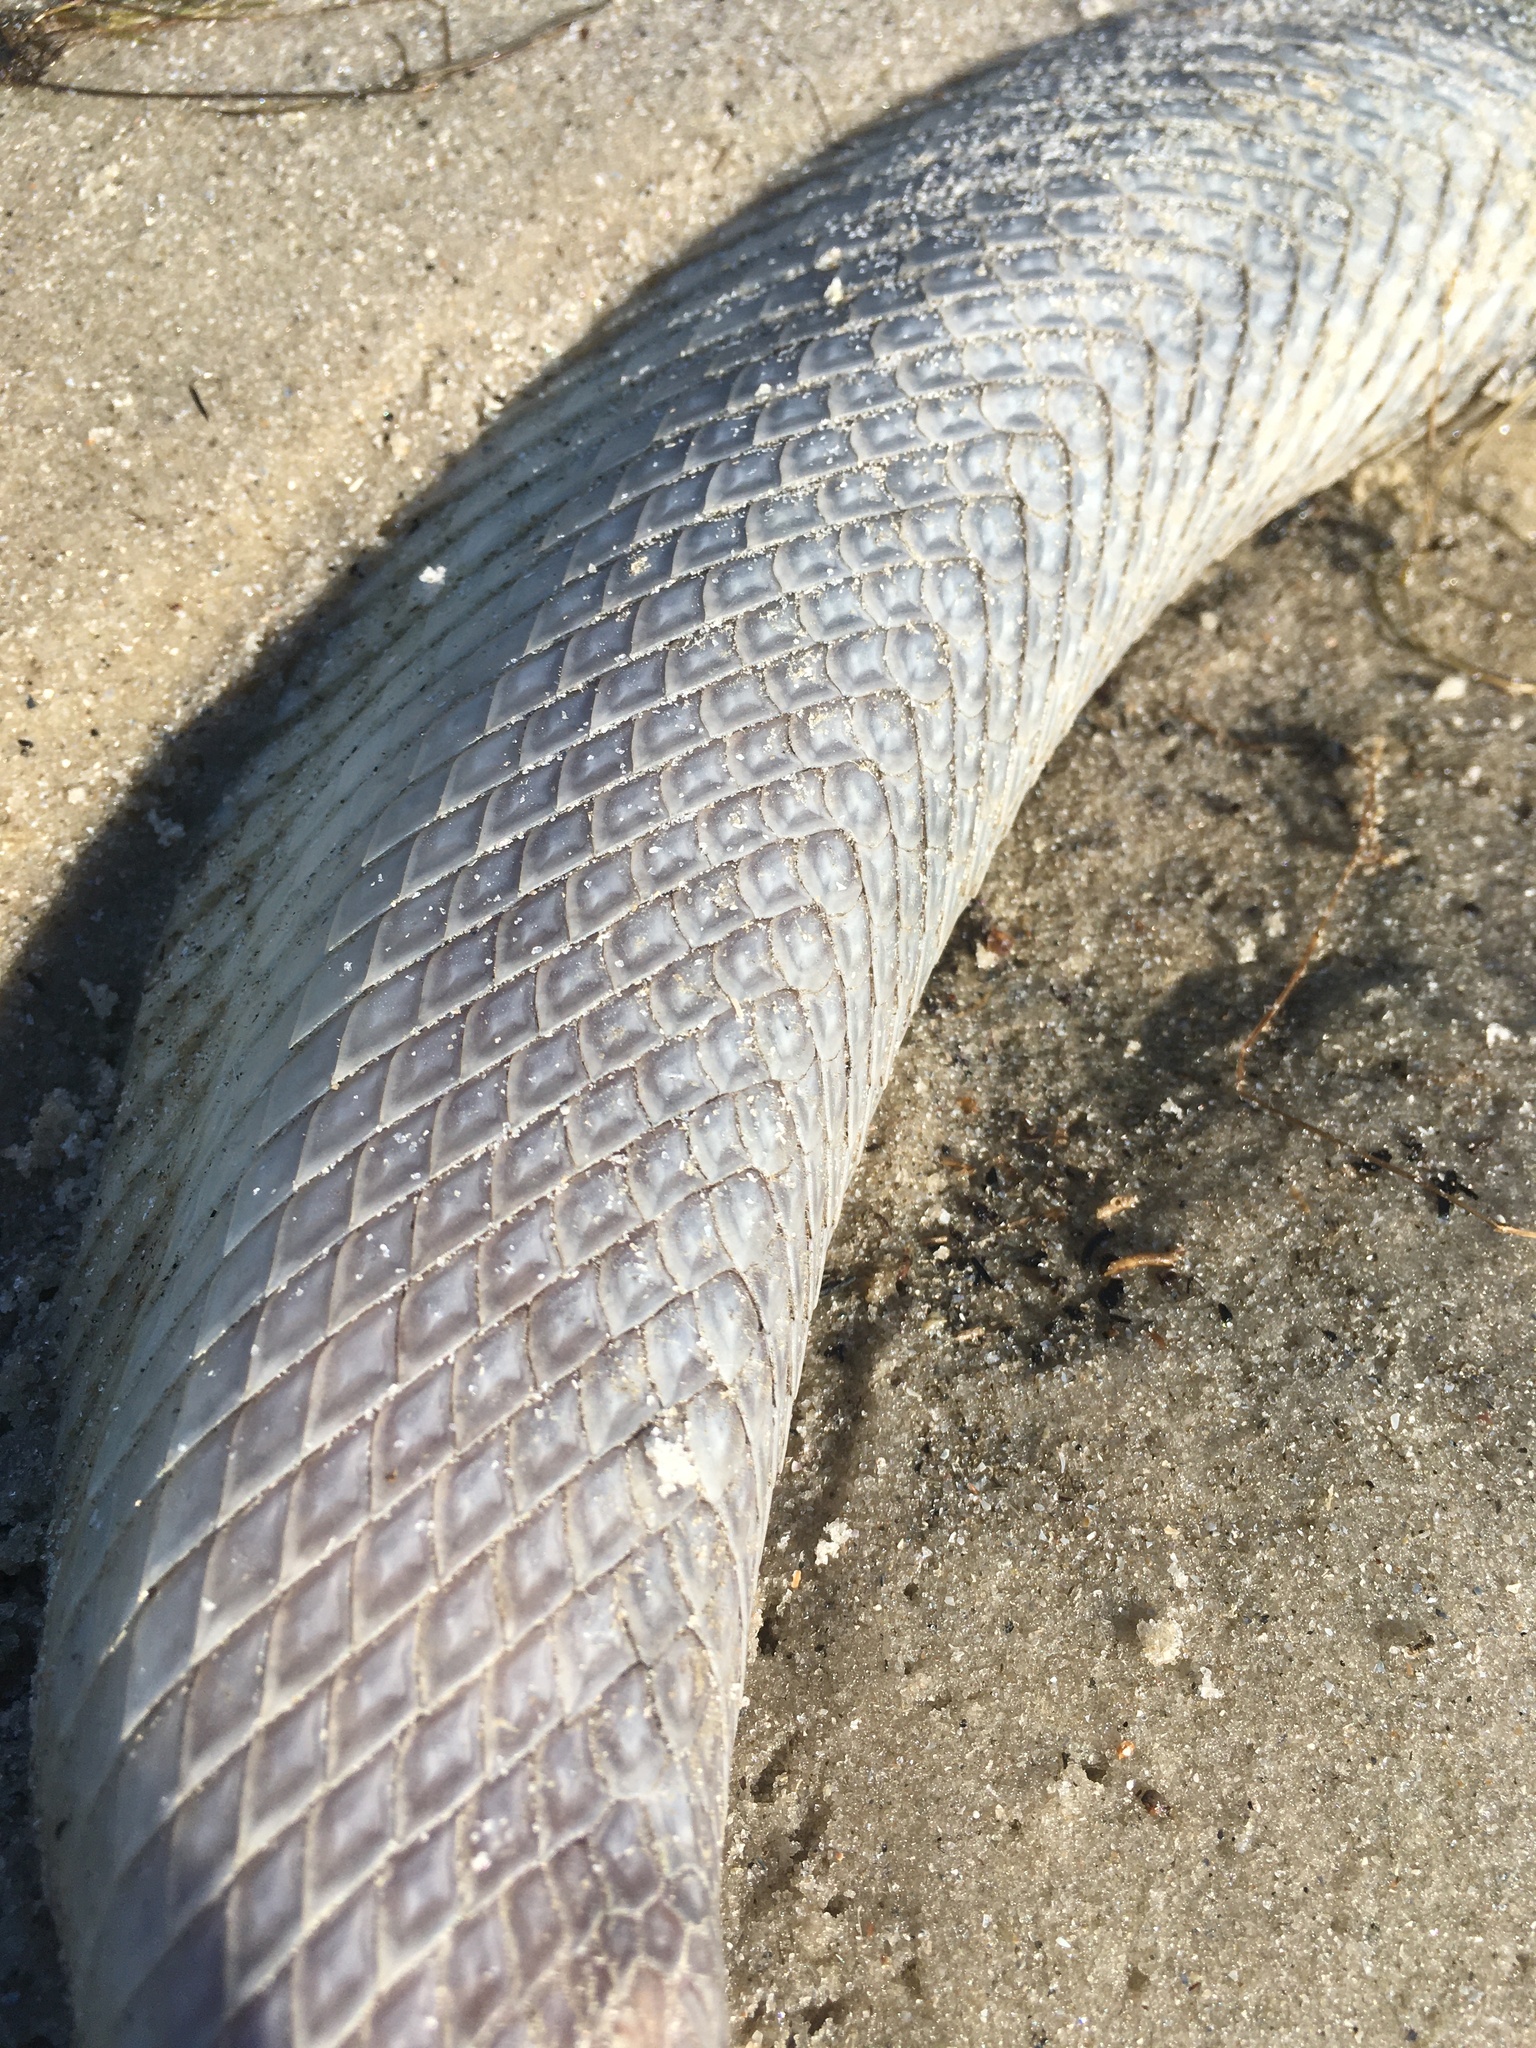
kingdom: Animalia
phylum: Chordata
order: Lepisosteiformes
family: Lepisosteidae
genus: Lepisosteus
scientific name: Lepisosteus osseus
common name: Longnose gar
